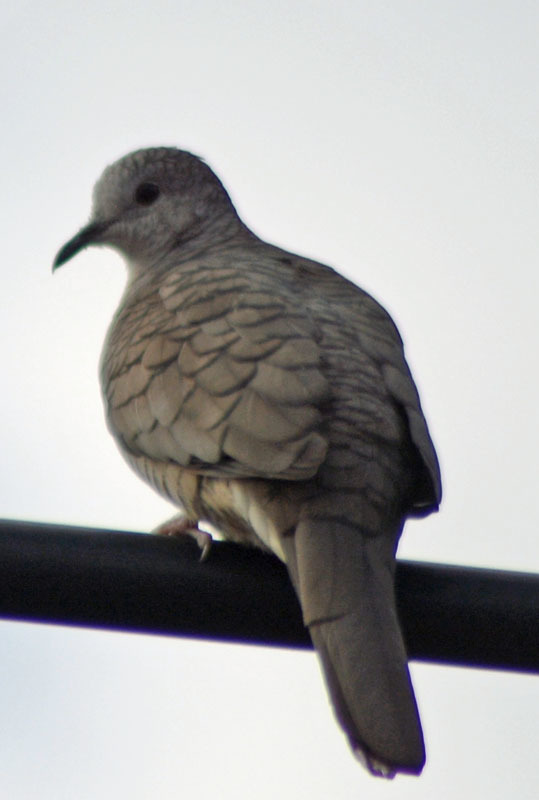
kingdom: Animalia
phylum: Chordata
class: Aves
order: Columbiformes
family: Columbidae
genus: Columbina
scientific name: Columbina inca
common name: Inca dove
